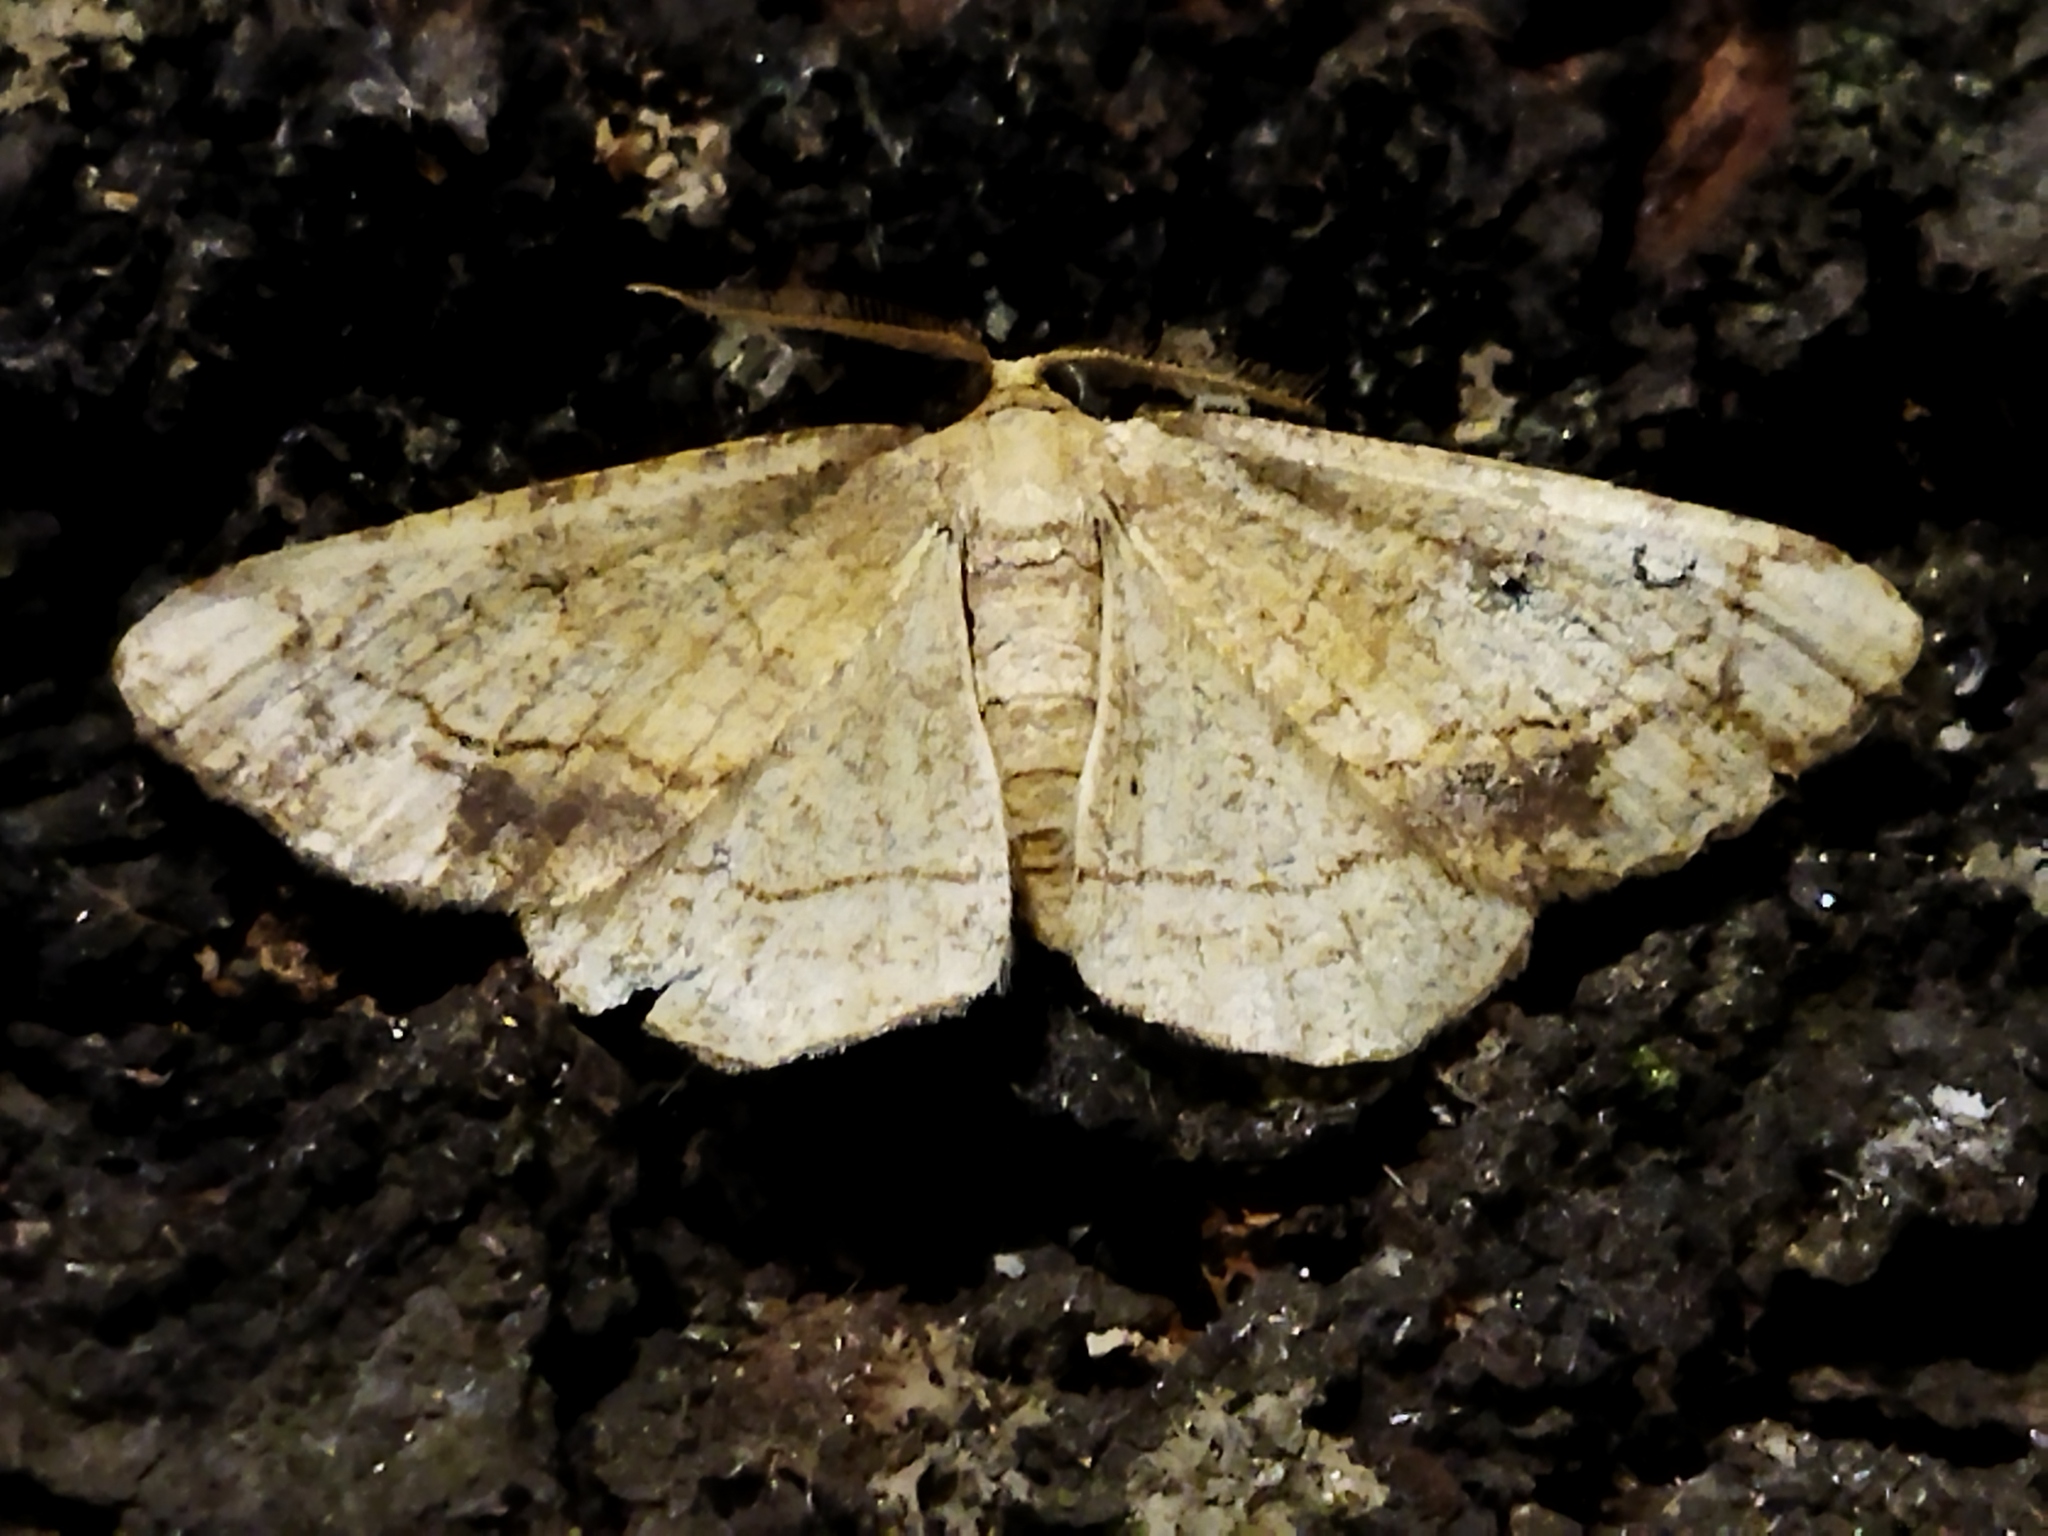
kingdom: Animalia
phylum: Arthropoda
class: Insecta
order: Lepidoptera
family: Geometridae
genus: Stegania
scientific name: Stegania dilectaria
